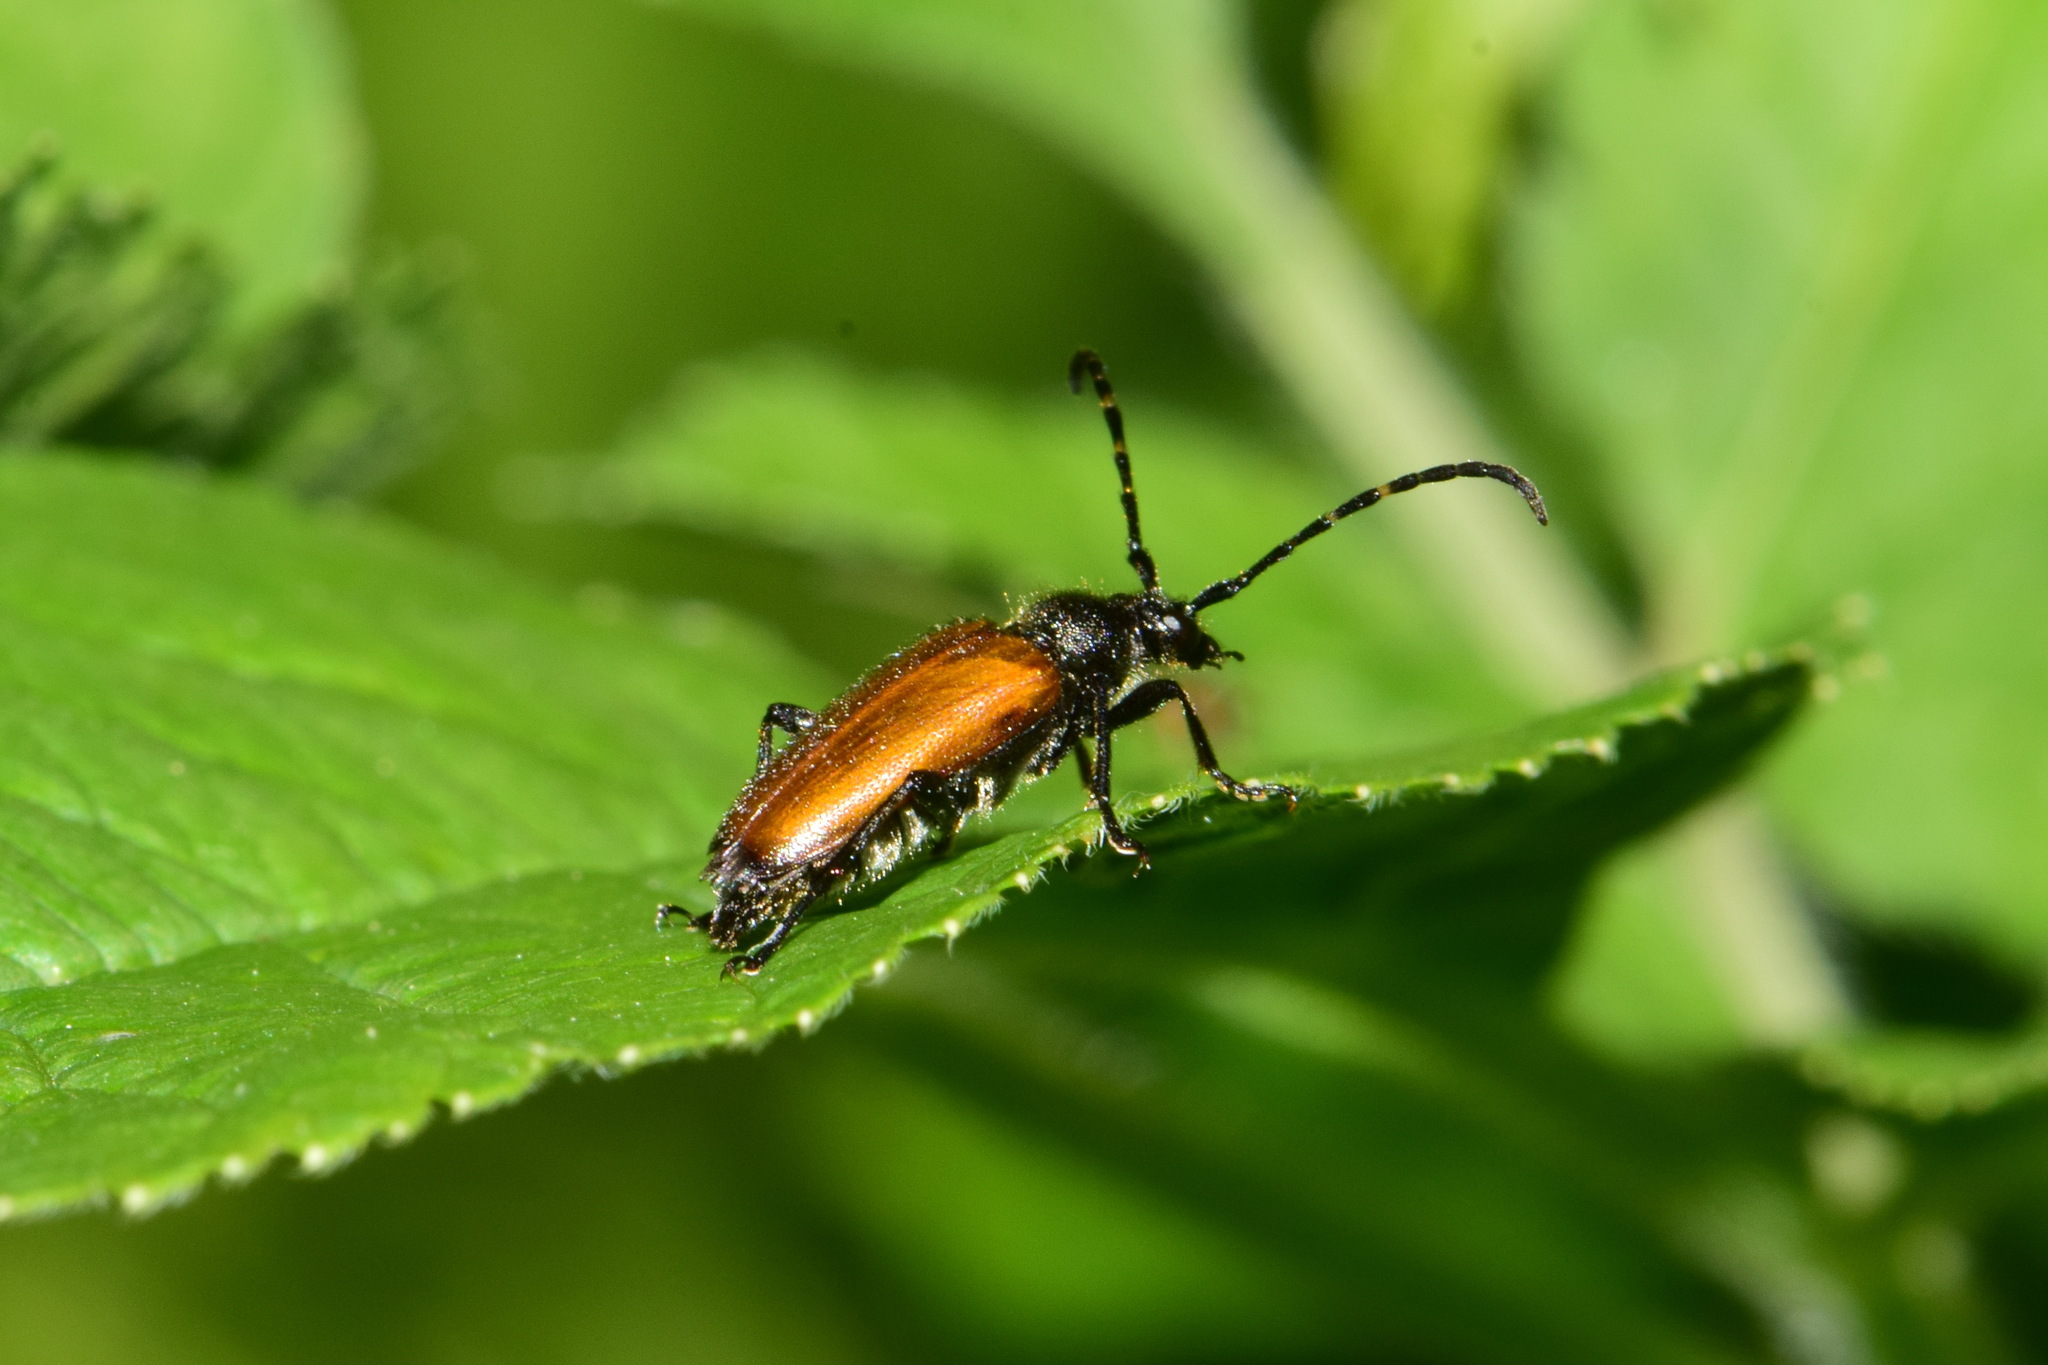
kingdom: Animalia
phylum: Arthropoda
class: Insecta
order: Coleoptera
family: Cerambycidae
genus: Paracorymbia
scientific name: Paracorymbia maculicornis
